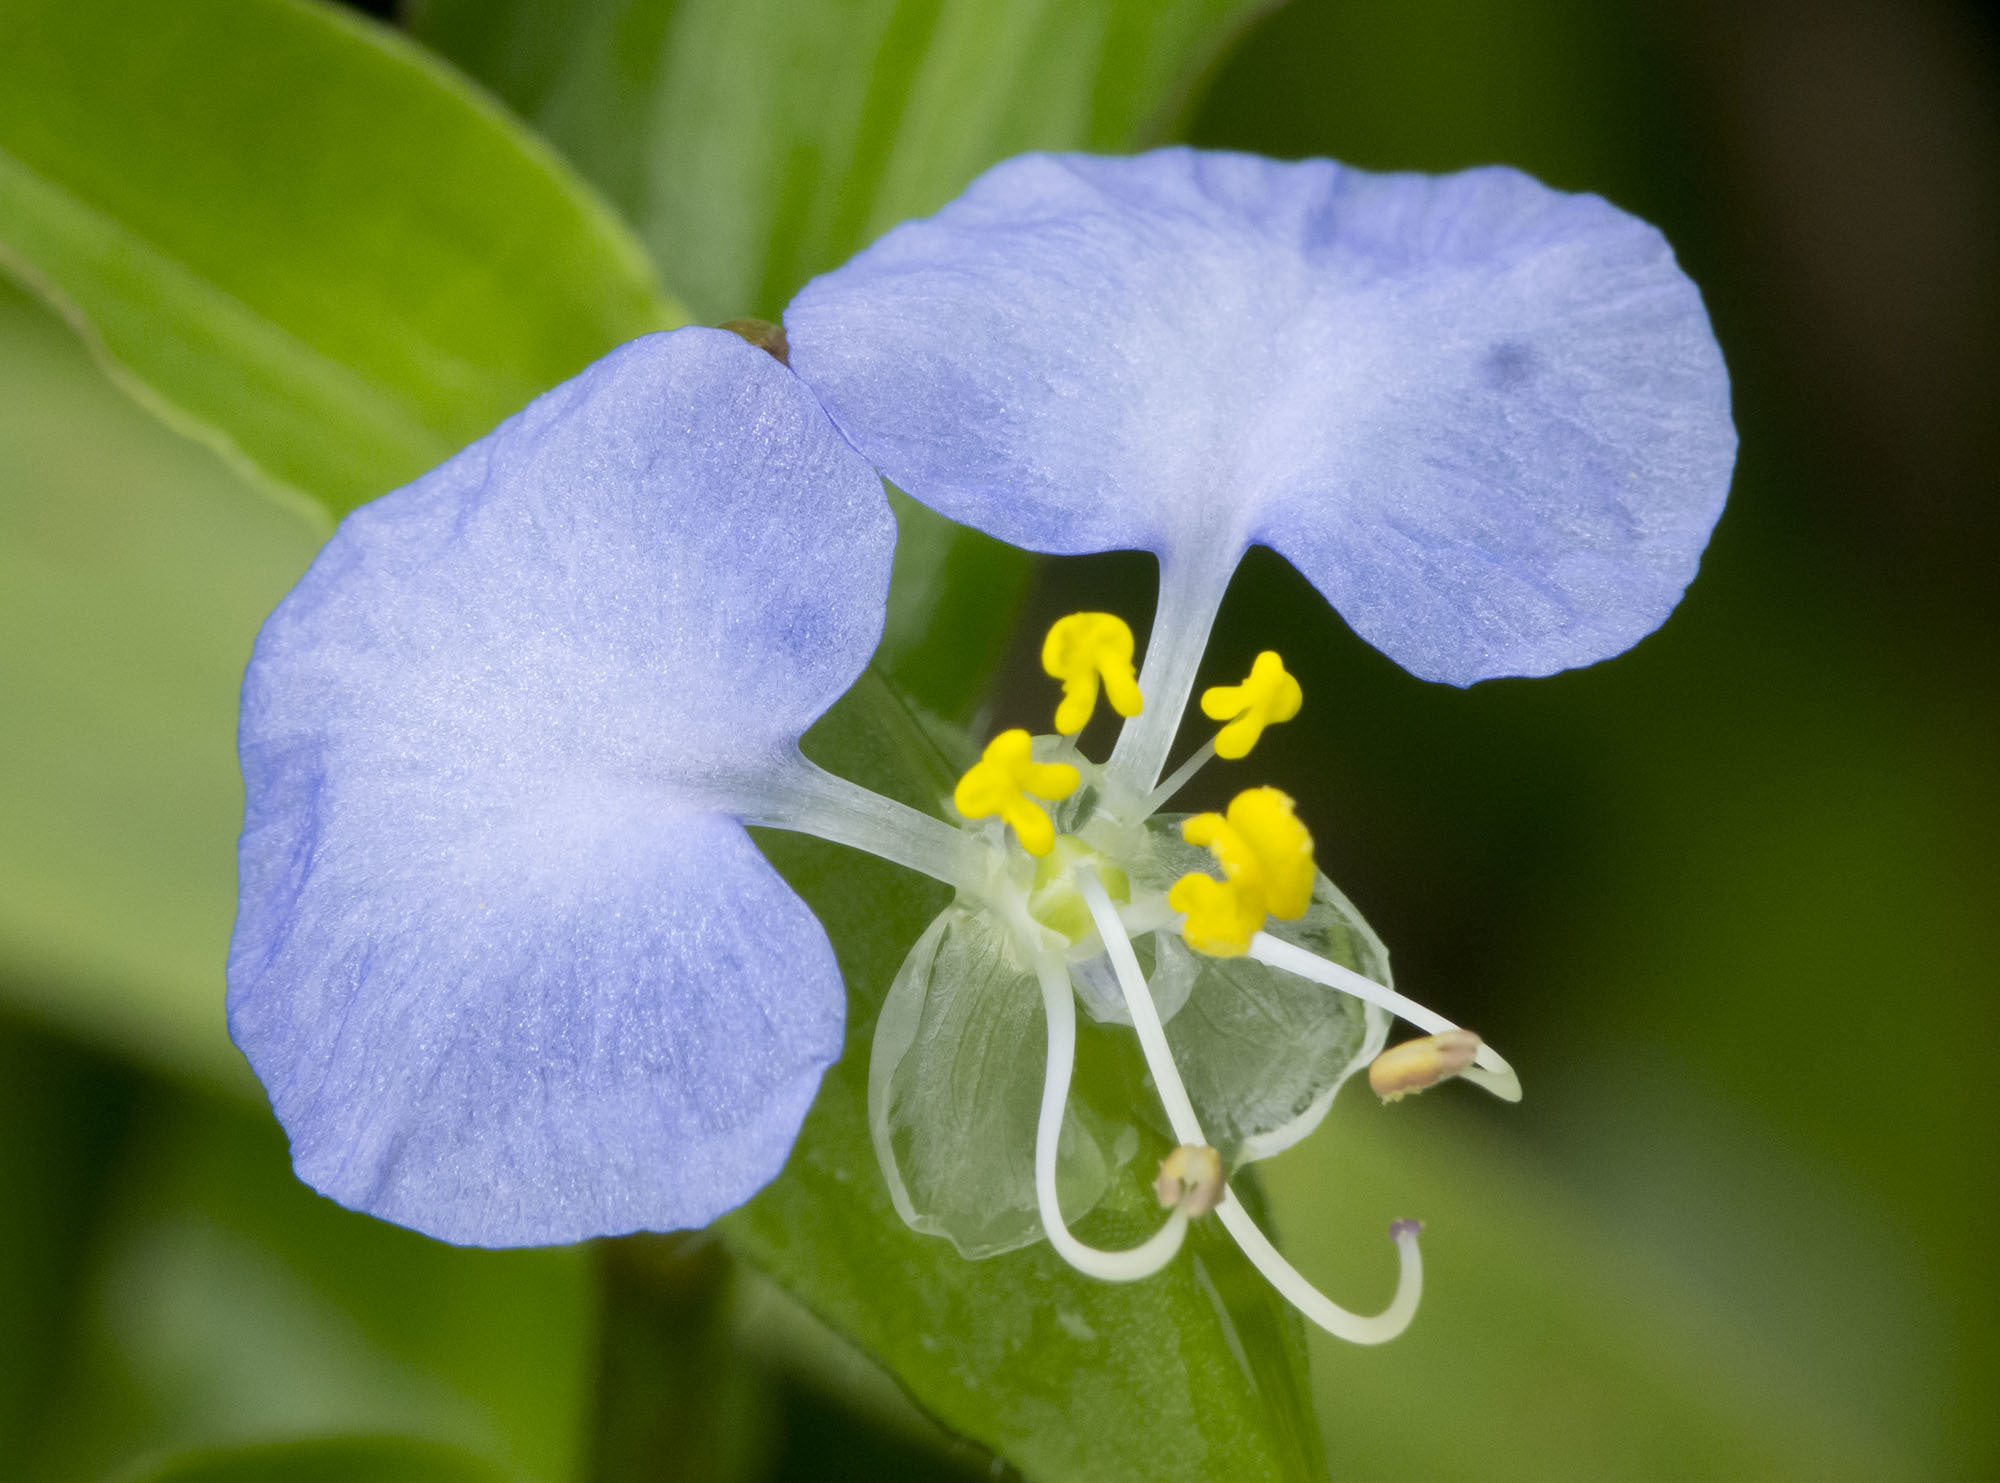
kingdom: Plantae
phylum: Tracheophyta
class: Liliopsida
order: Commelinales
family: Commelinaceae
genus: Commelina
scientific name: Commelina erecta
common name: Blousel blommetjie
